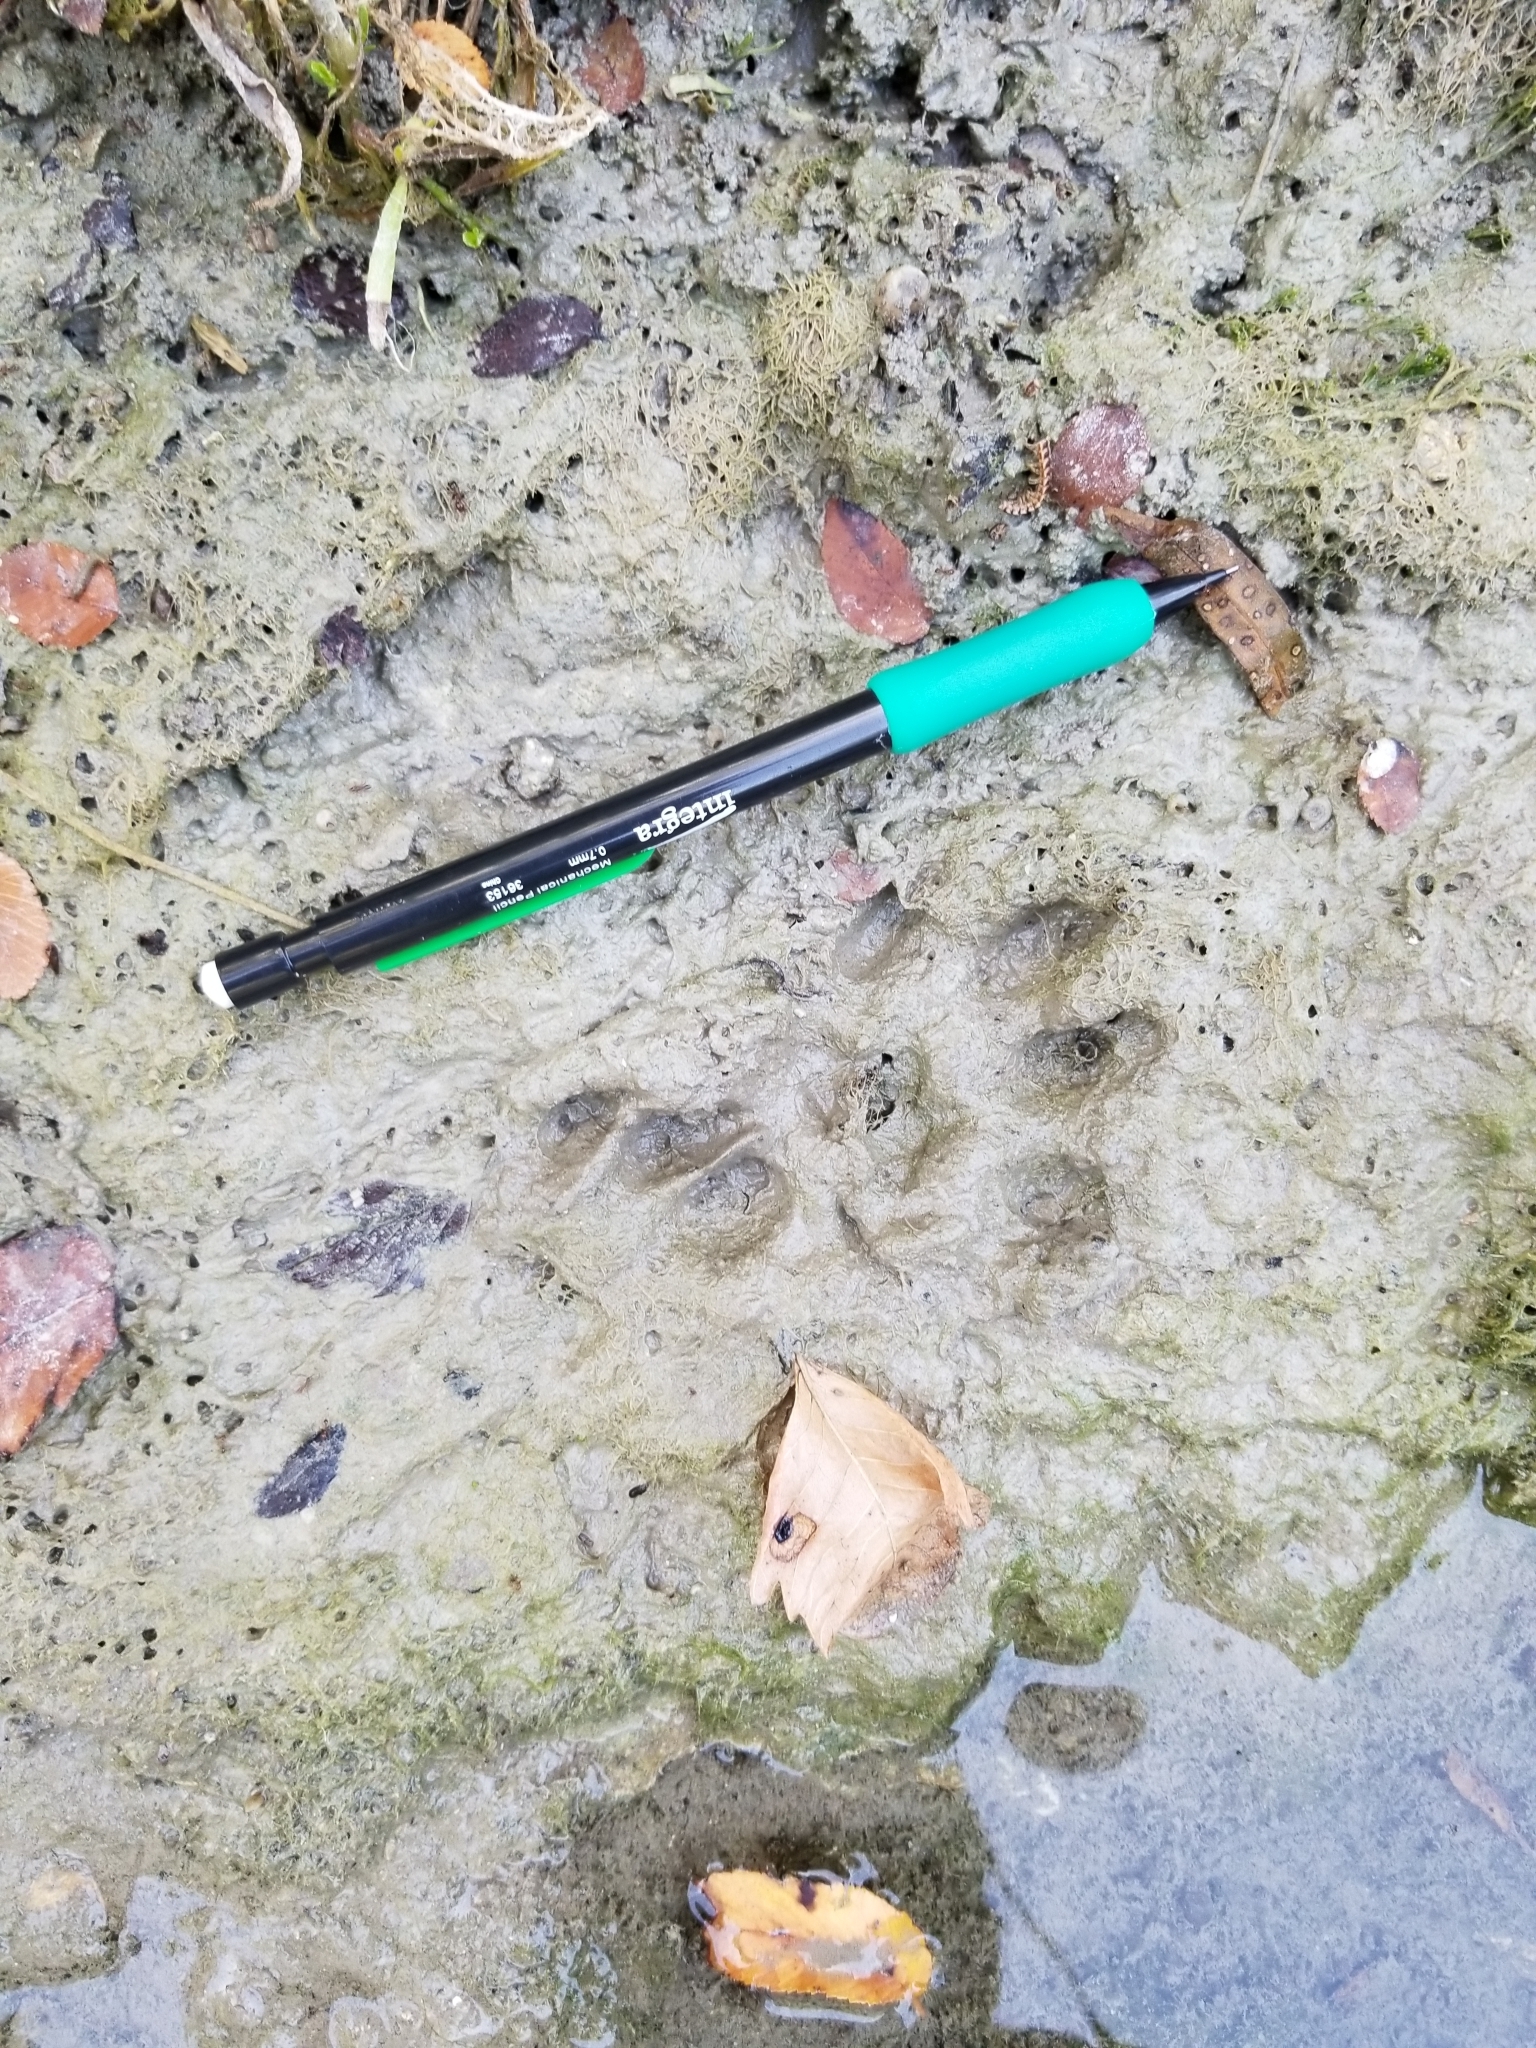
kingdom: Animalia
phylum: Chordata
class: Mammalia
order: Carnivora
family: Mustelidae
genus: Lontra
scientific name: Lontra canadensis
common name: North american river otter
